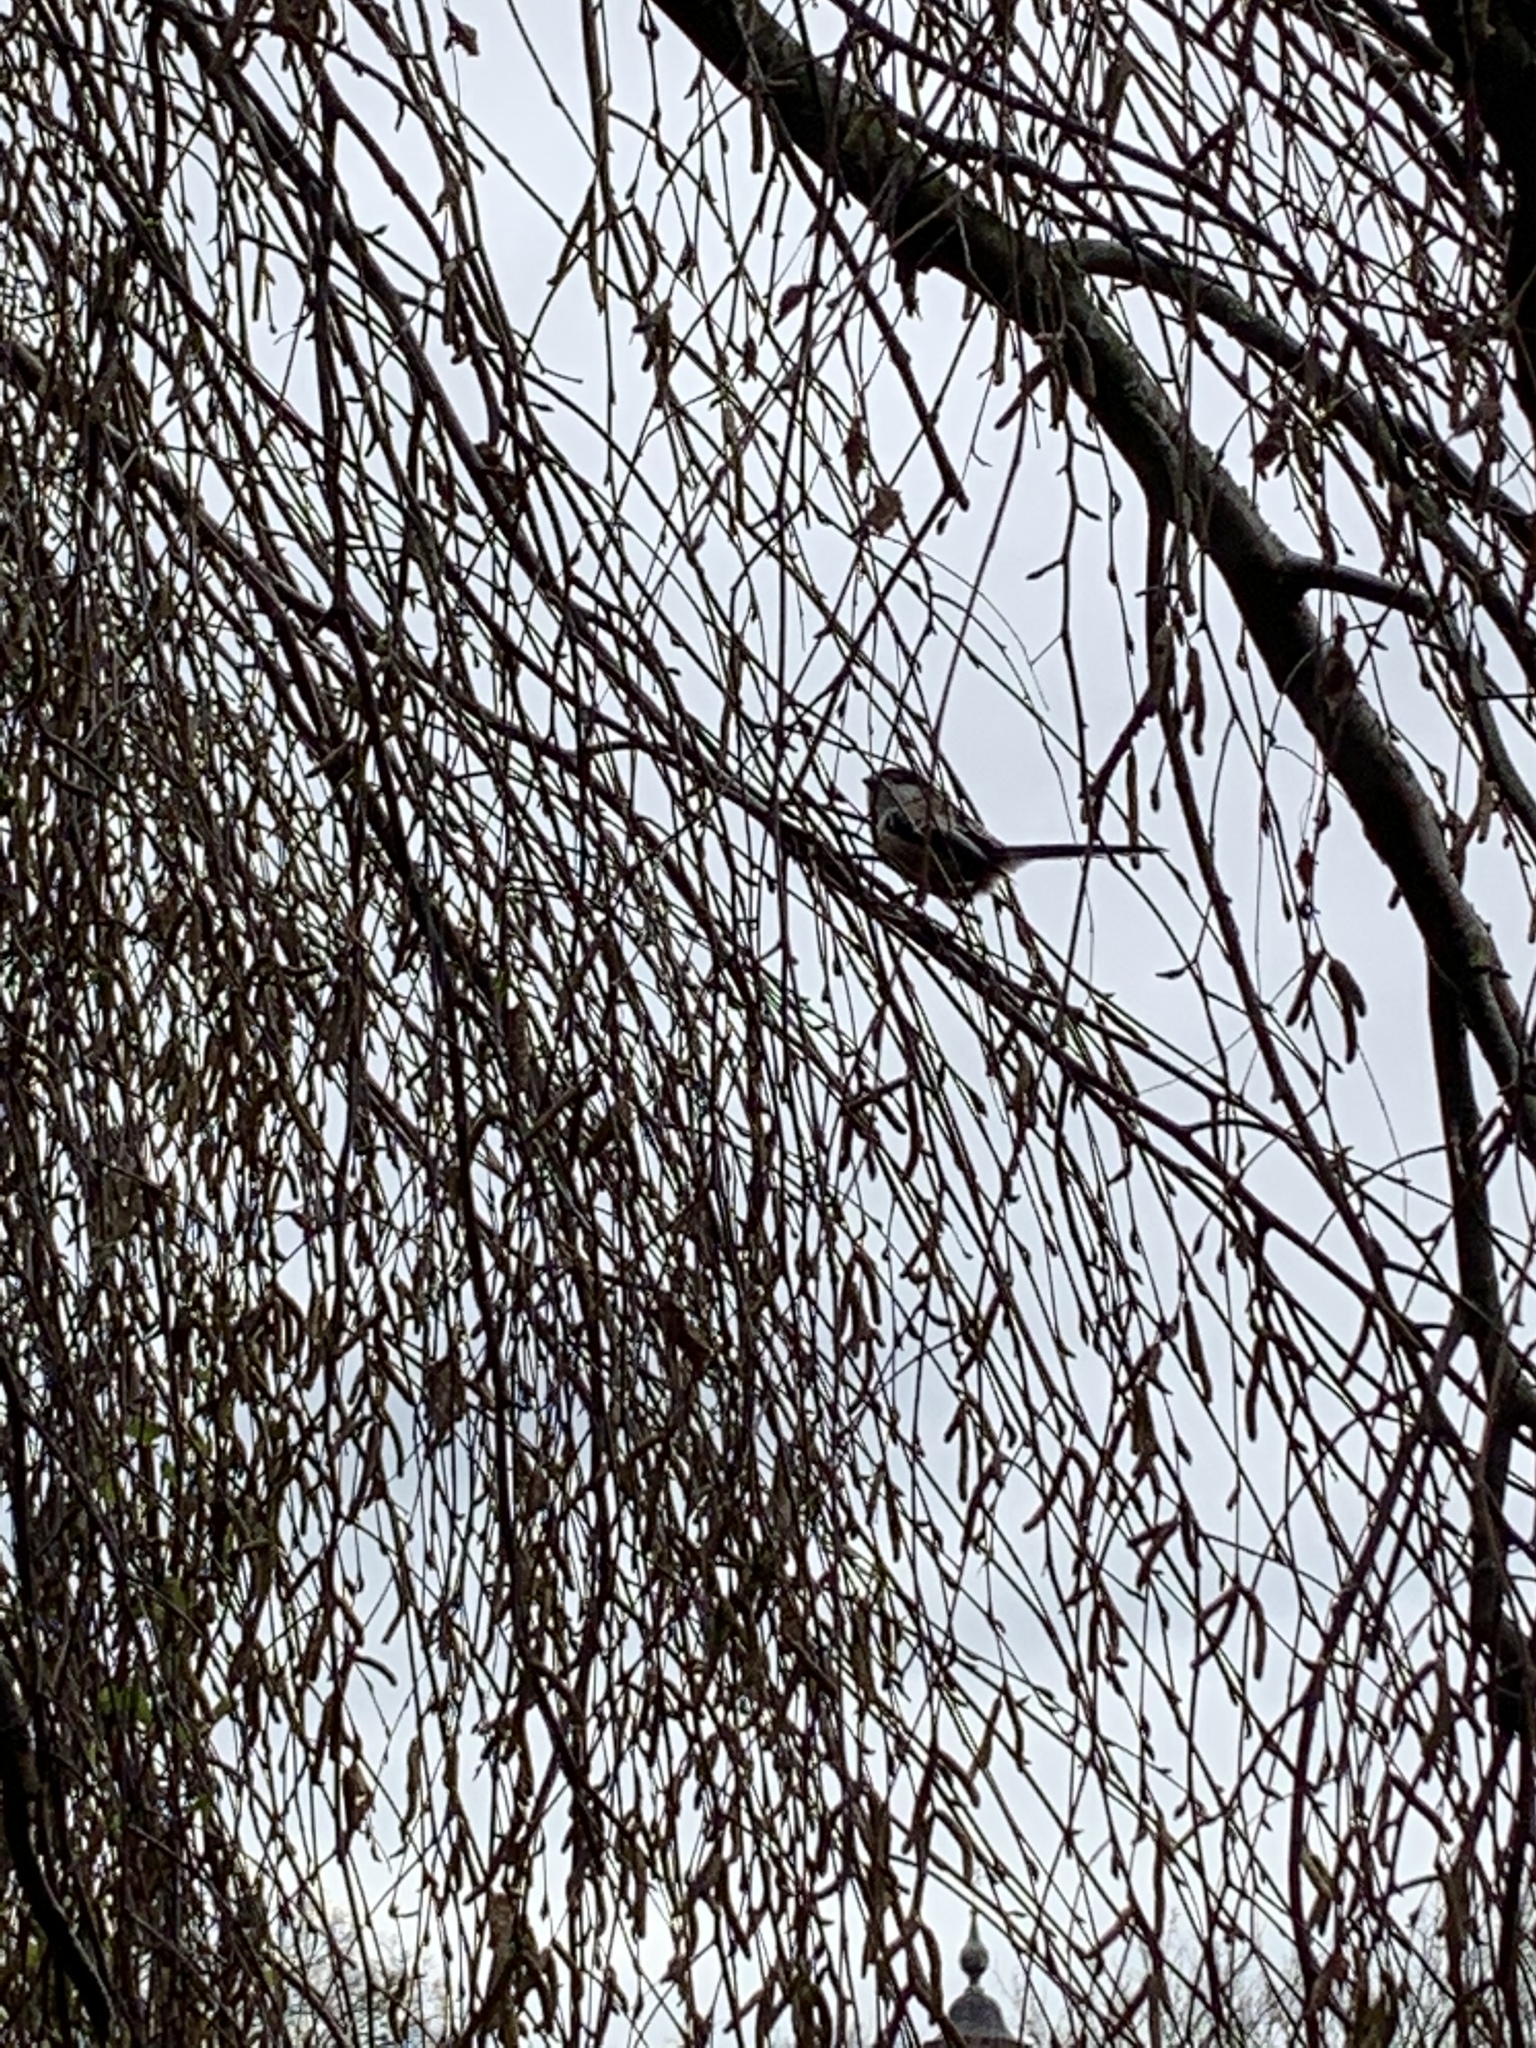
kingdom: Animalia
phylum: Chordata
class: Aves
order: Passeriformes
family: Aegithalidae
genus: Aegithalos
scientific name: Aegithalos caudatus
